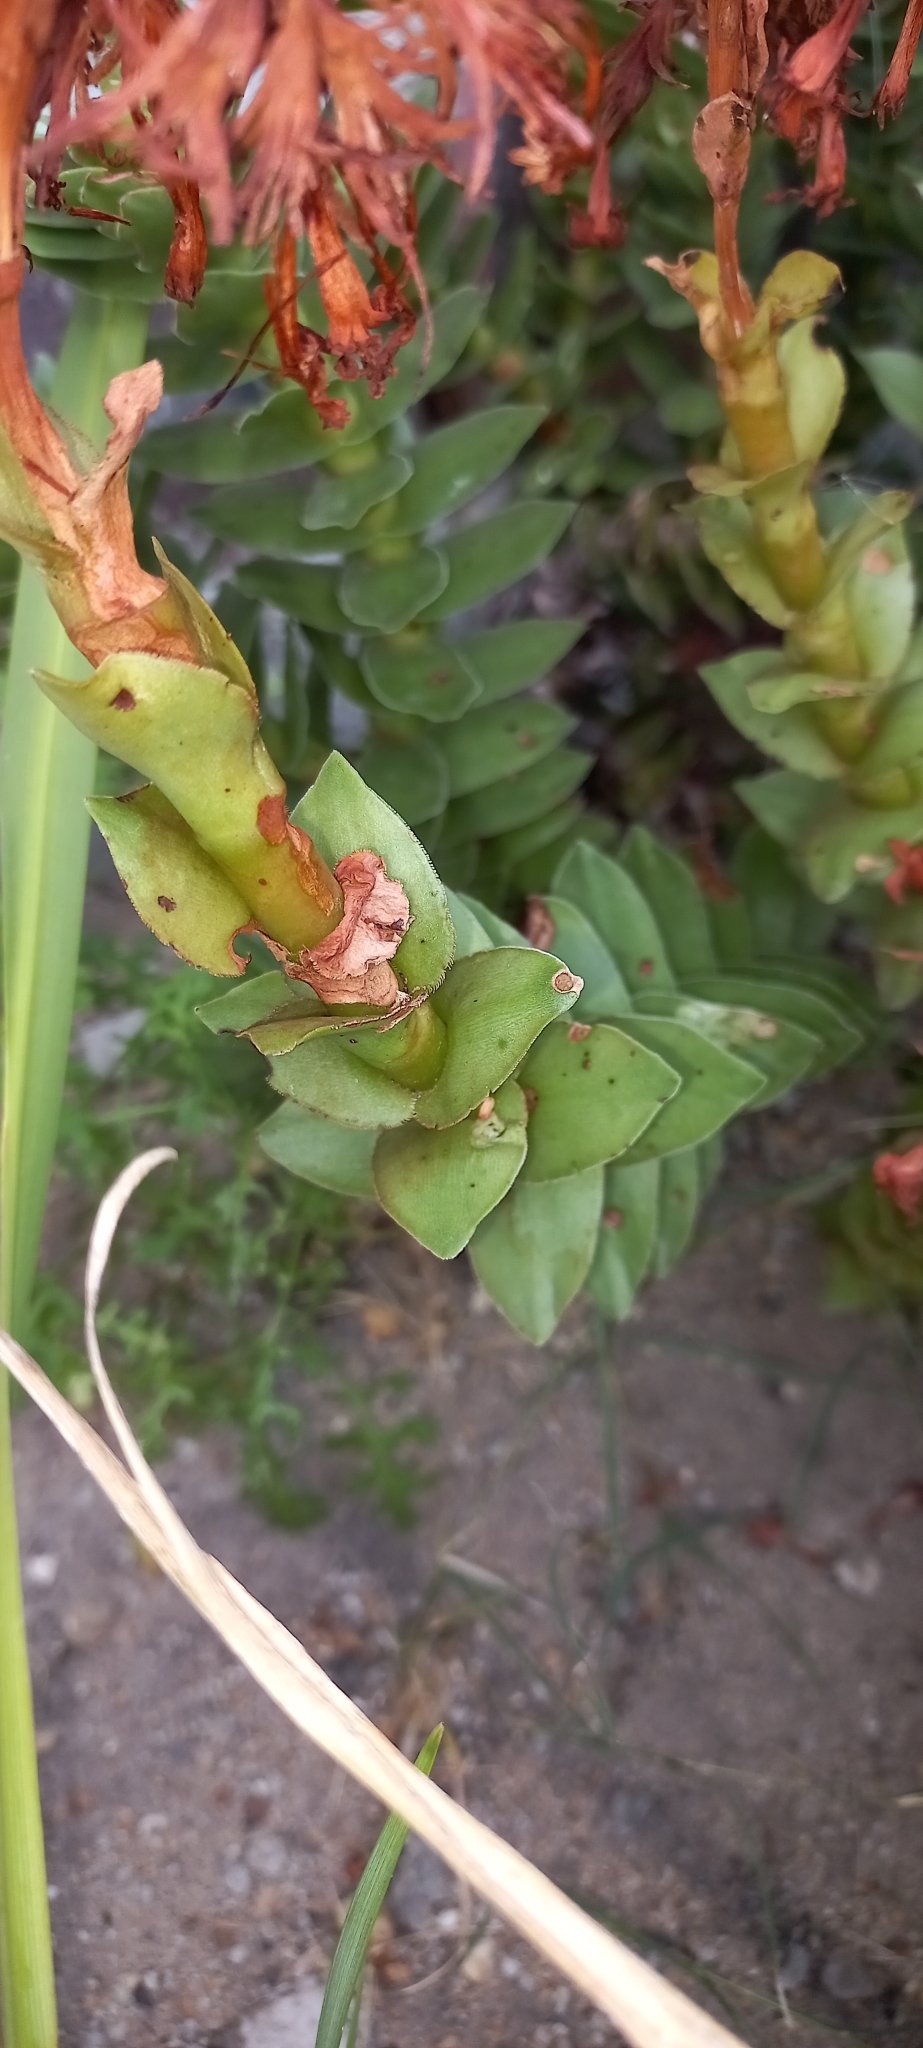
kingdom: Plantae
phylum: Tracheophyta
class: Magnoliopsida
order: Saxifragales
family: Crassulaceae
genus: Crassula
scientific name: Crassula coccinea
